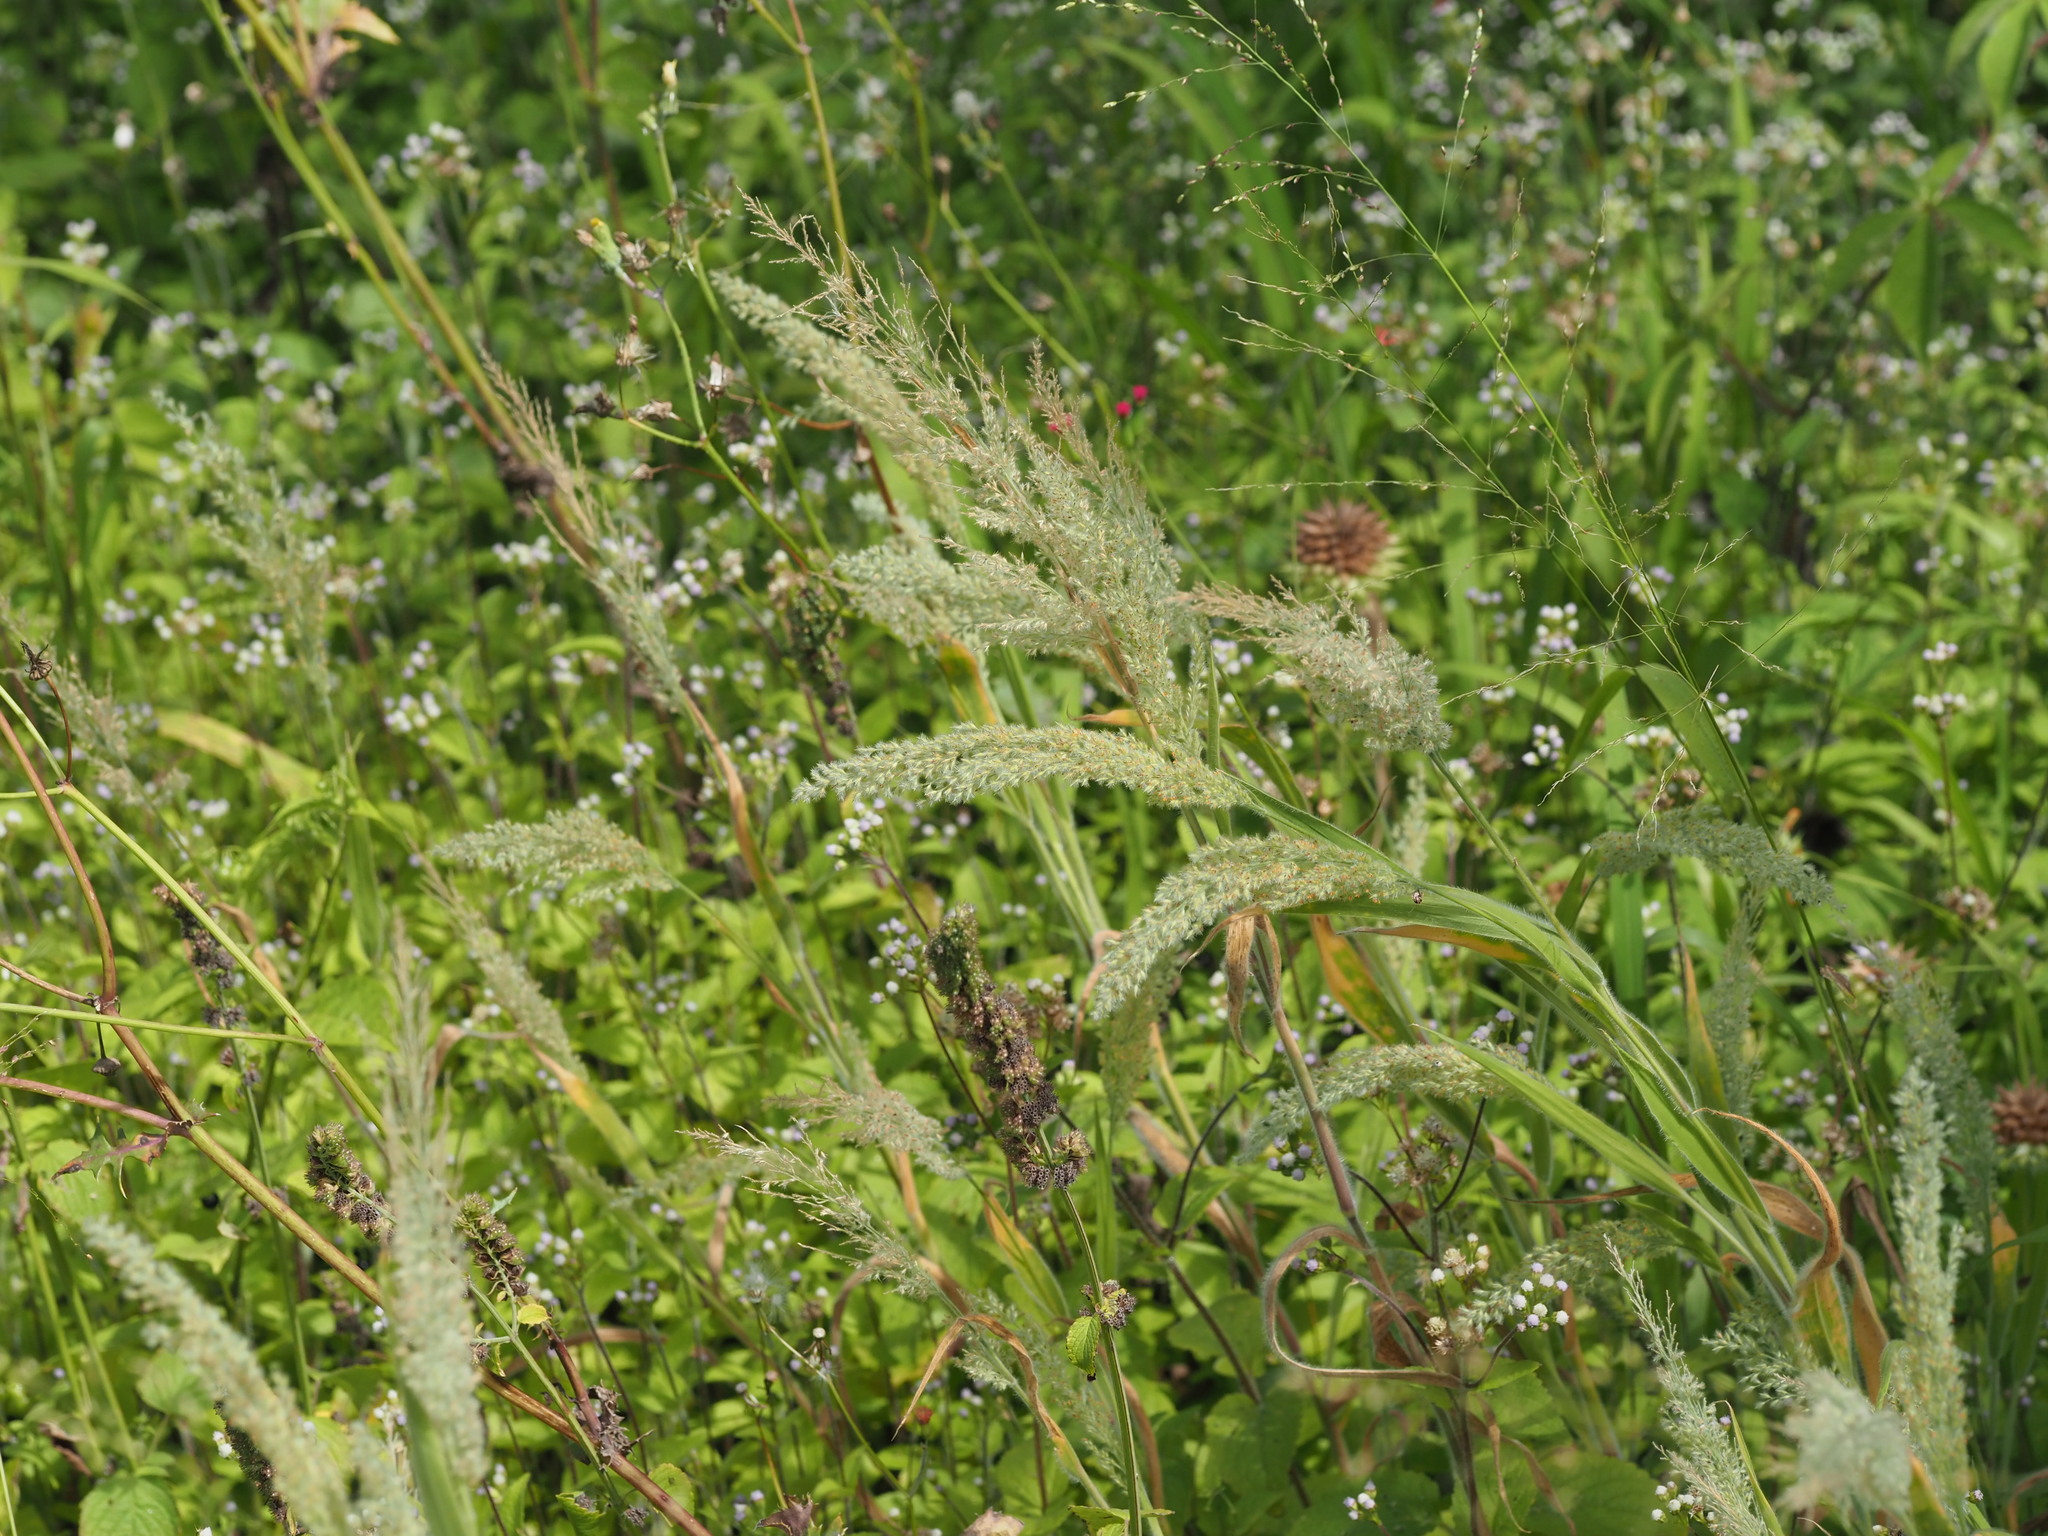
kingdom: Plantae
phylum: Tracheophyta
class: Liliopsida
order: Poales
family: Poaceae
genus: Panicum
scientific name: Panicum torridum
